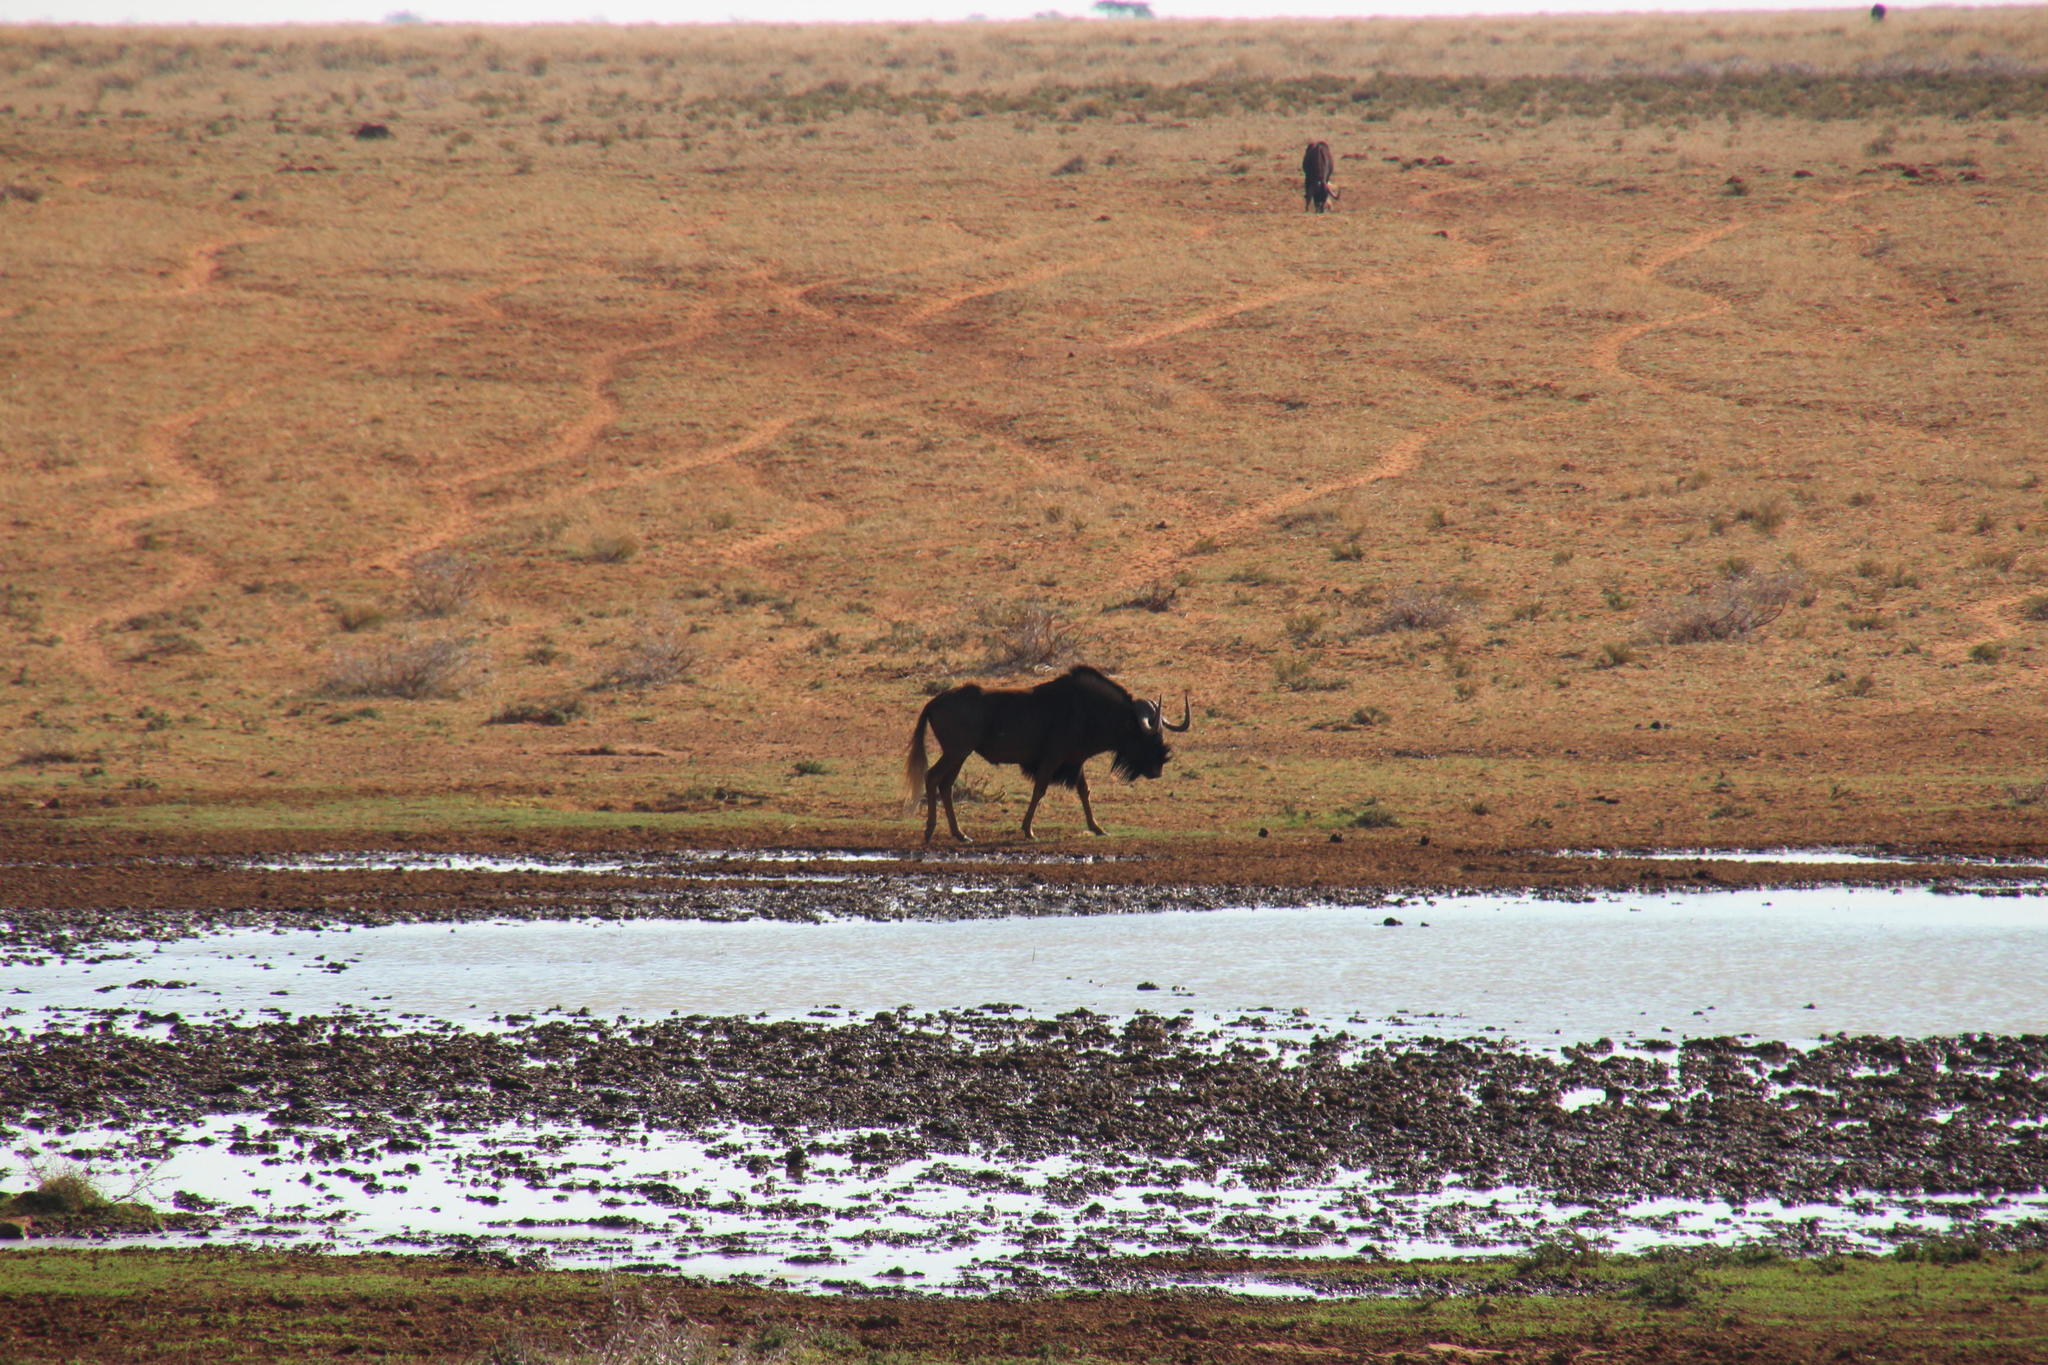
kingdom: Animalia
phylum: Chordata
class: Mammalia
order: Artiodactyla
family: Bovidae
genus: Connochaetes
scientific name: Connochaetes gnou
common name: Black wildebeest
